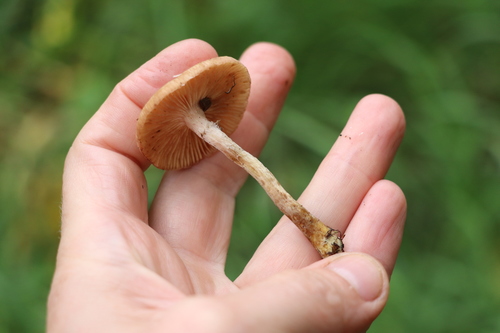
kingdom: Fungi
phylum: Basidiomycota
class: Agaricomycetes
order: Agaricales
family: Physalacriaceae
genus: Armillaria
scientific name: Armillaria cepistipes
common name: Mullet honey fungus
